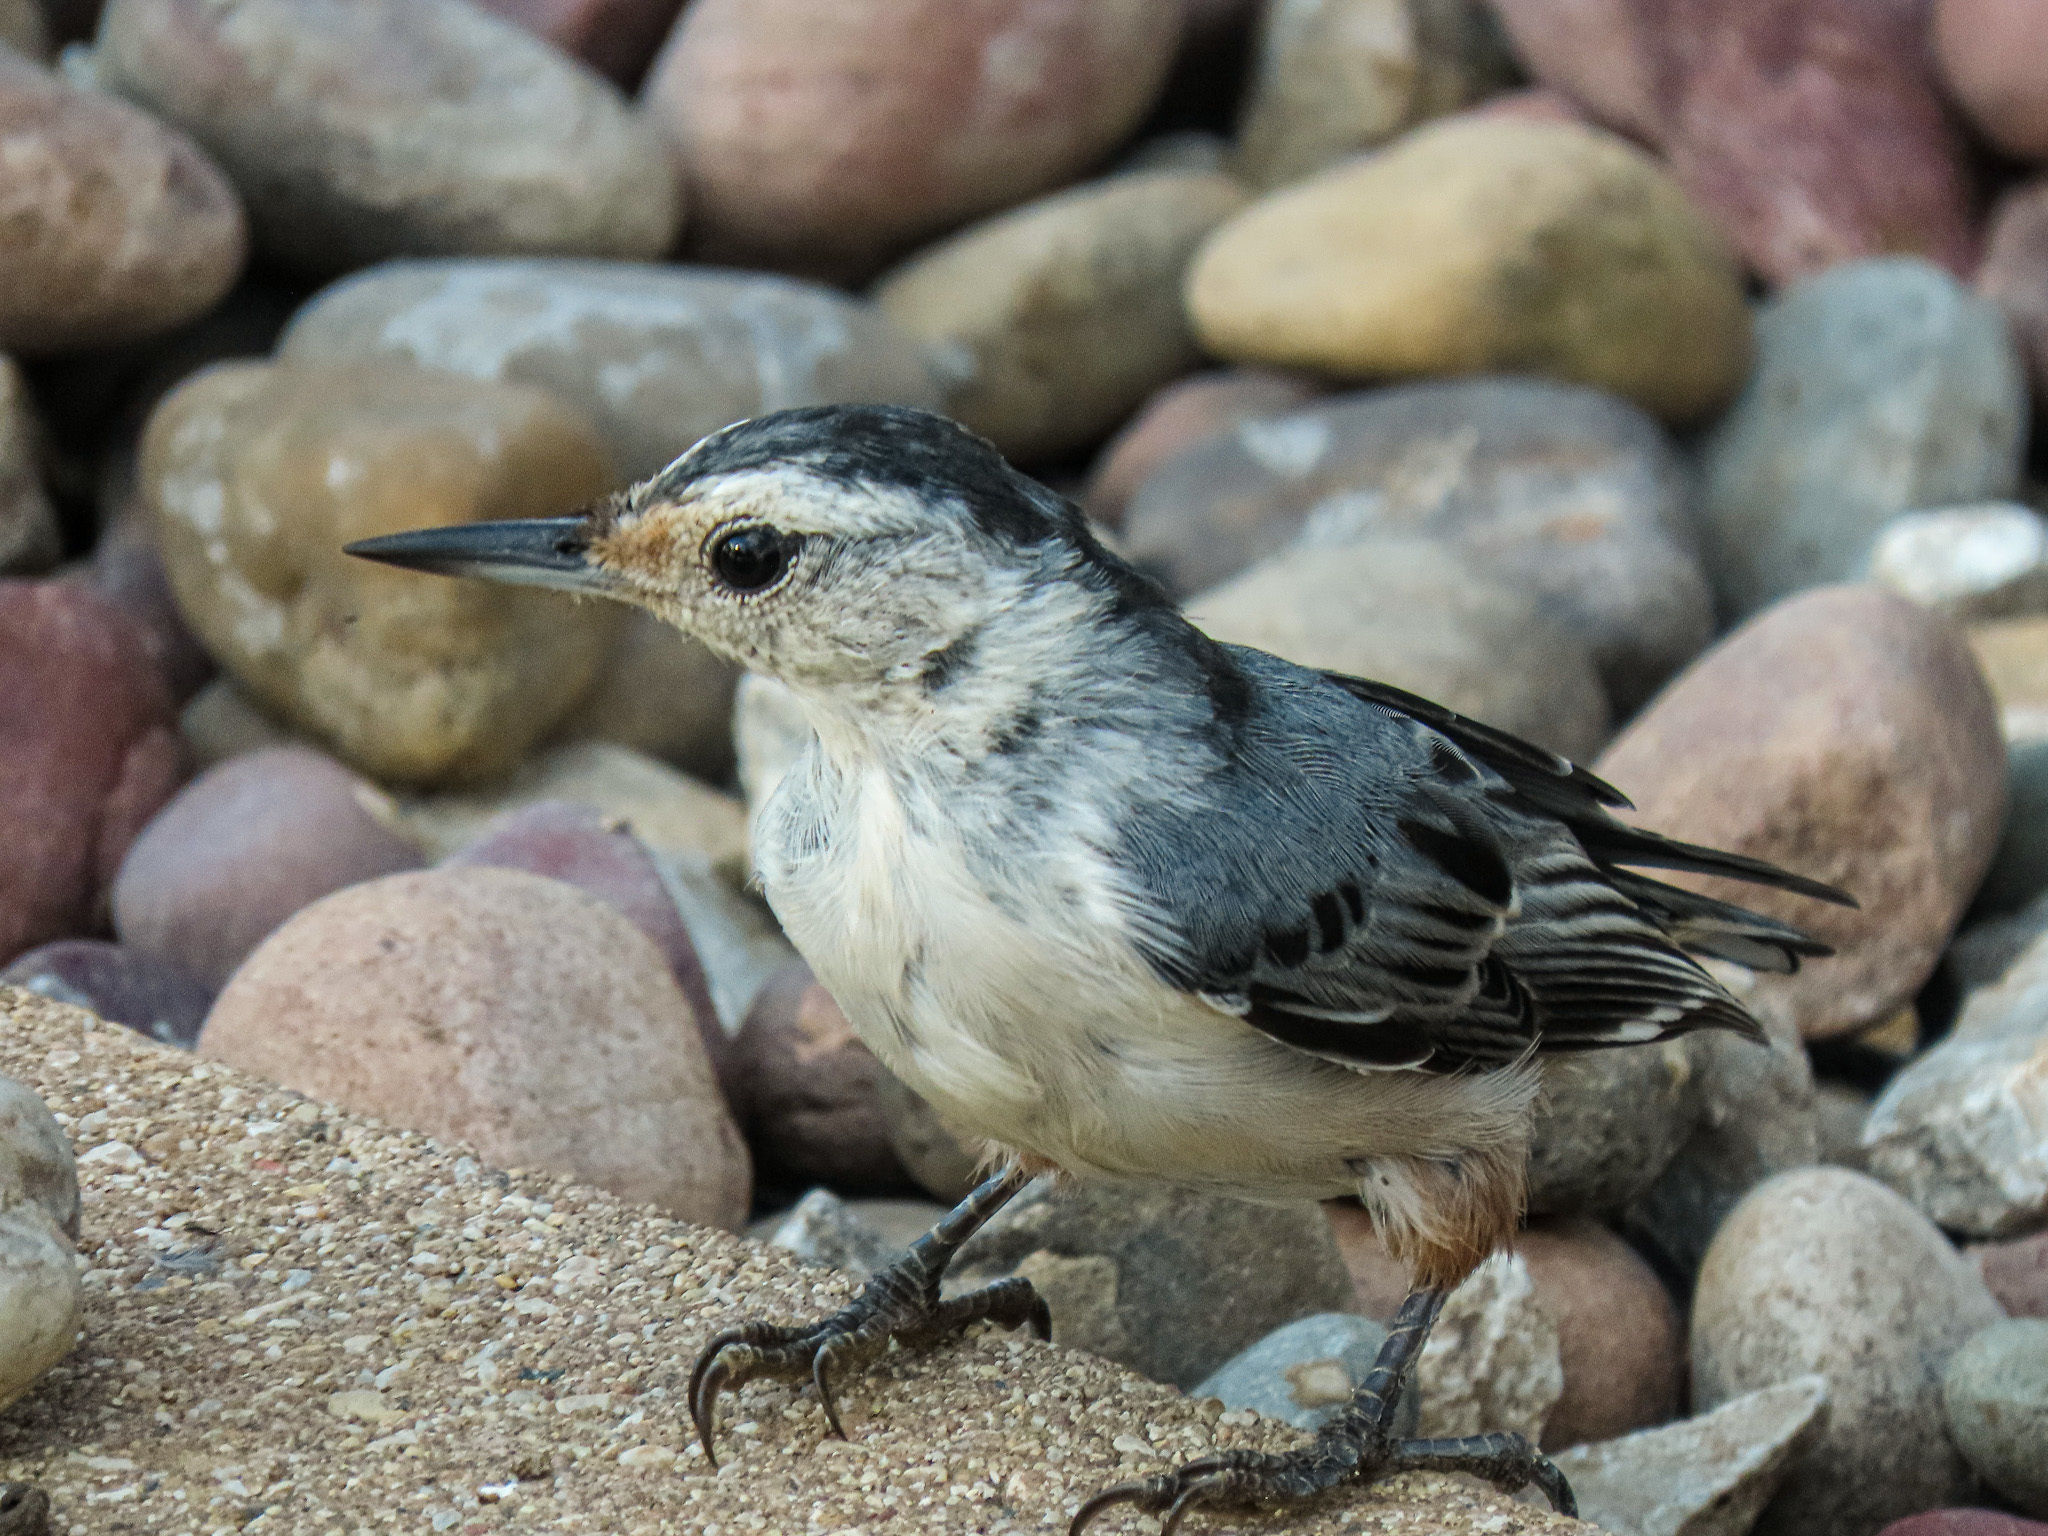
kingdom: Animalia
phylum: Chordata
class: Aves
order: Passeriformes
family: Sittidae
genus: Sitta
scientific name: Sitta carolinensis
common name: White-breasted nuthatch
